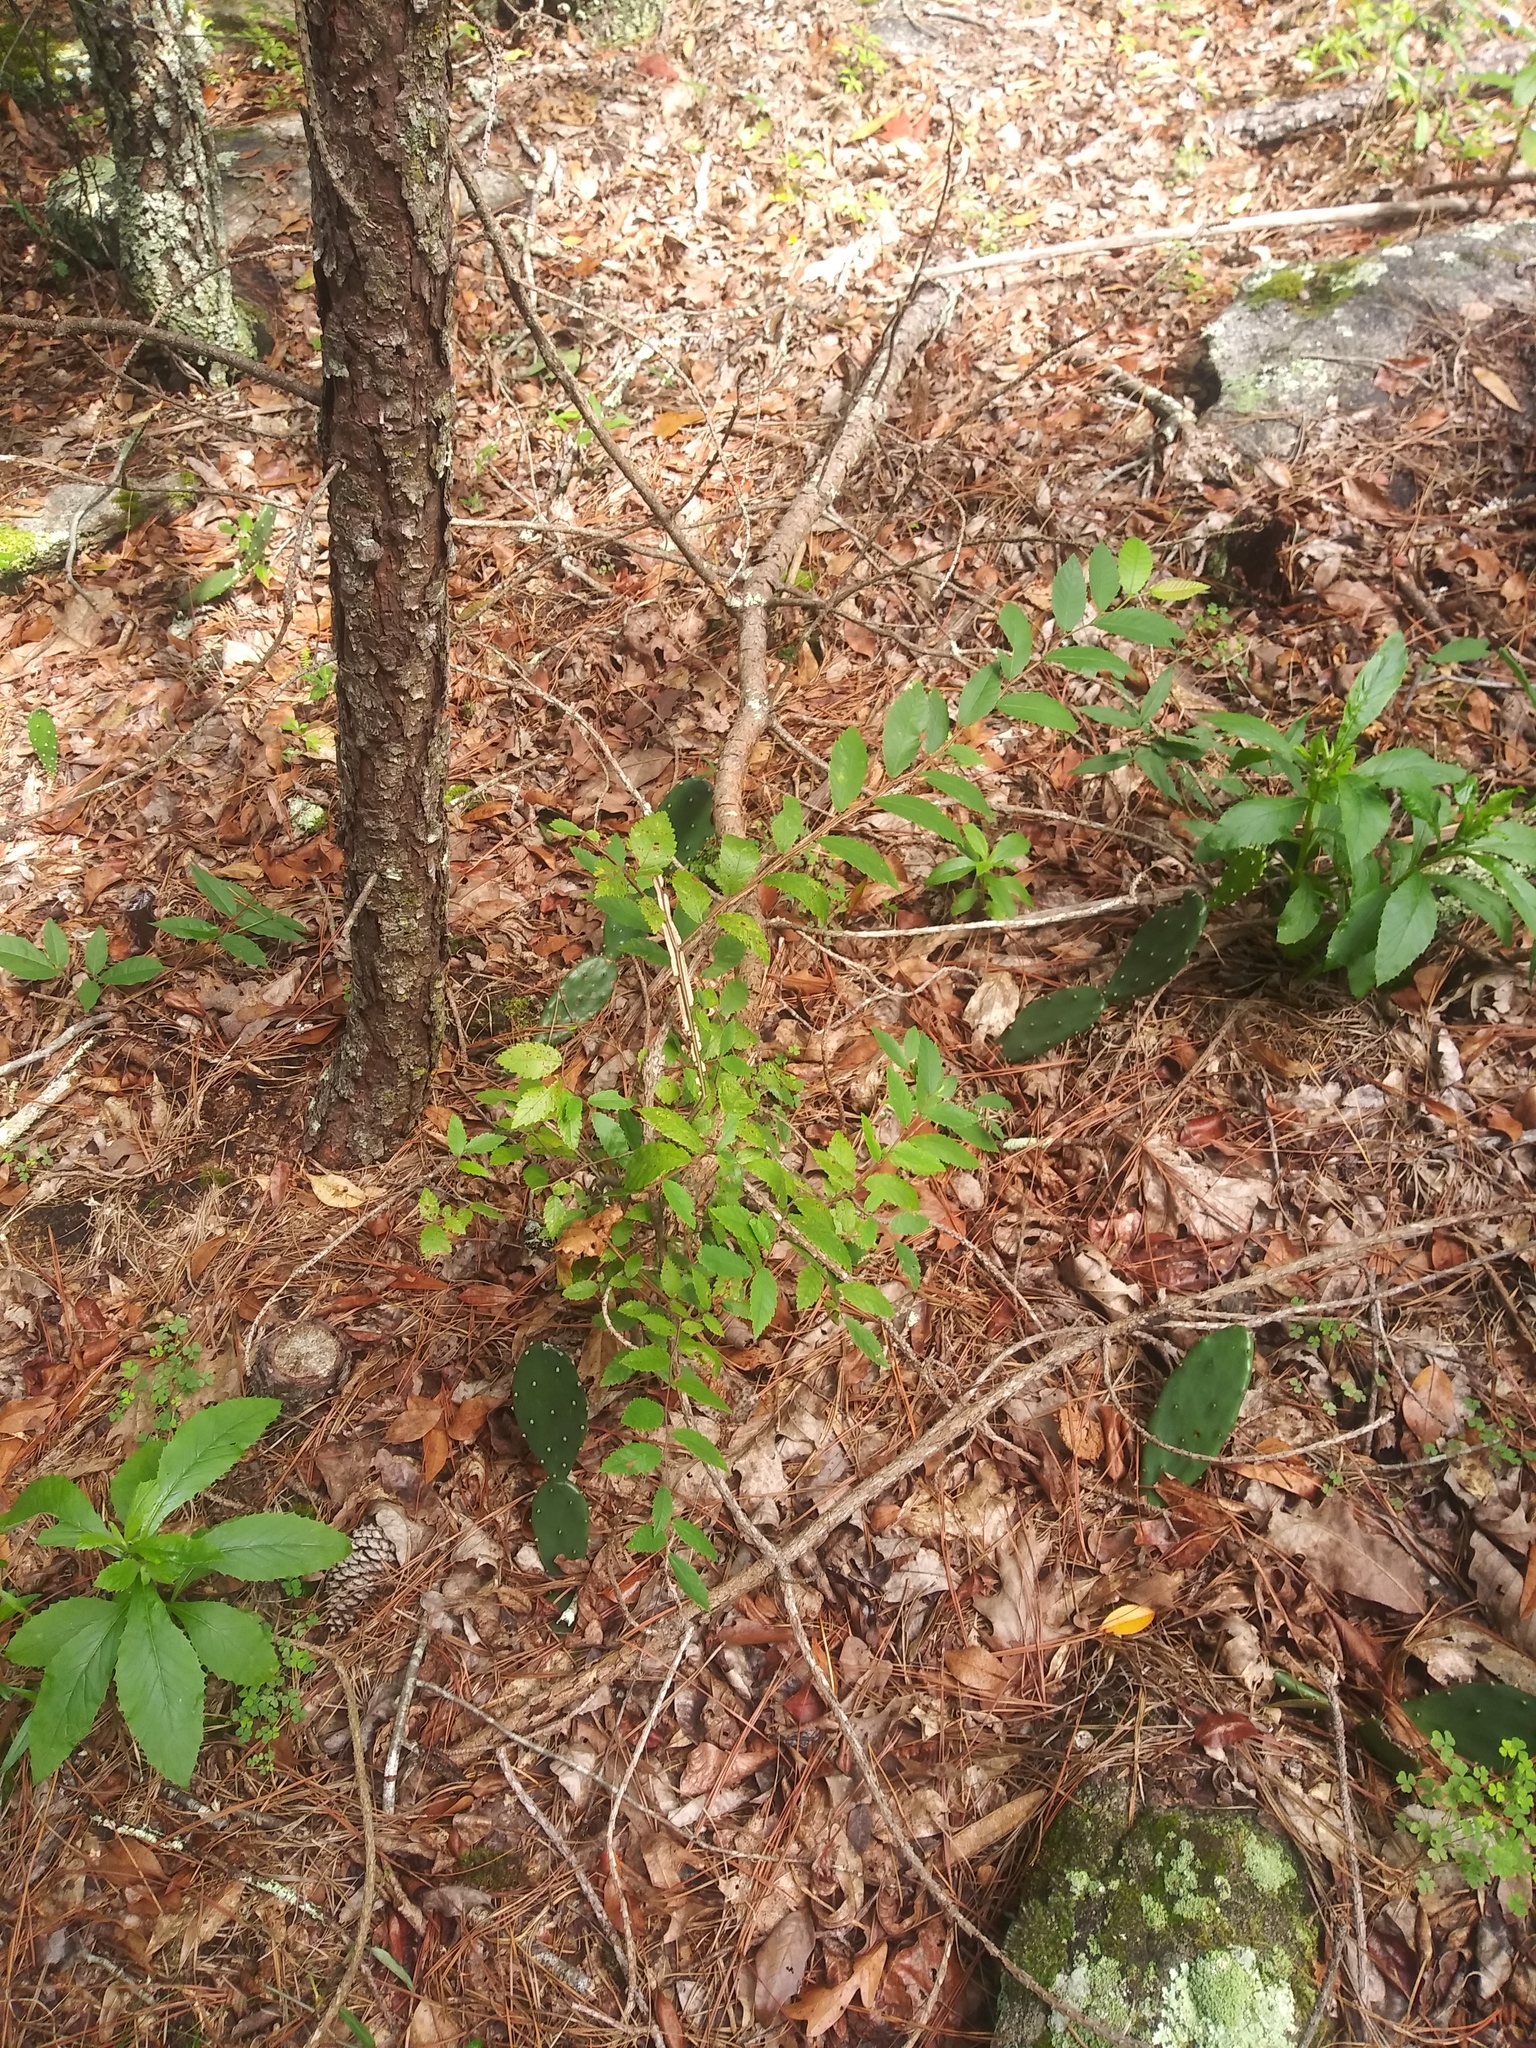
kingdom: Plantae
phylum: Tracheophyta
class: Magnoliopsida
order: Rosales
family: Ulmaceae
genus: Ulmus
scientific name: Ulmus alata
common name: Winged elm
